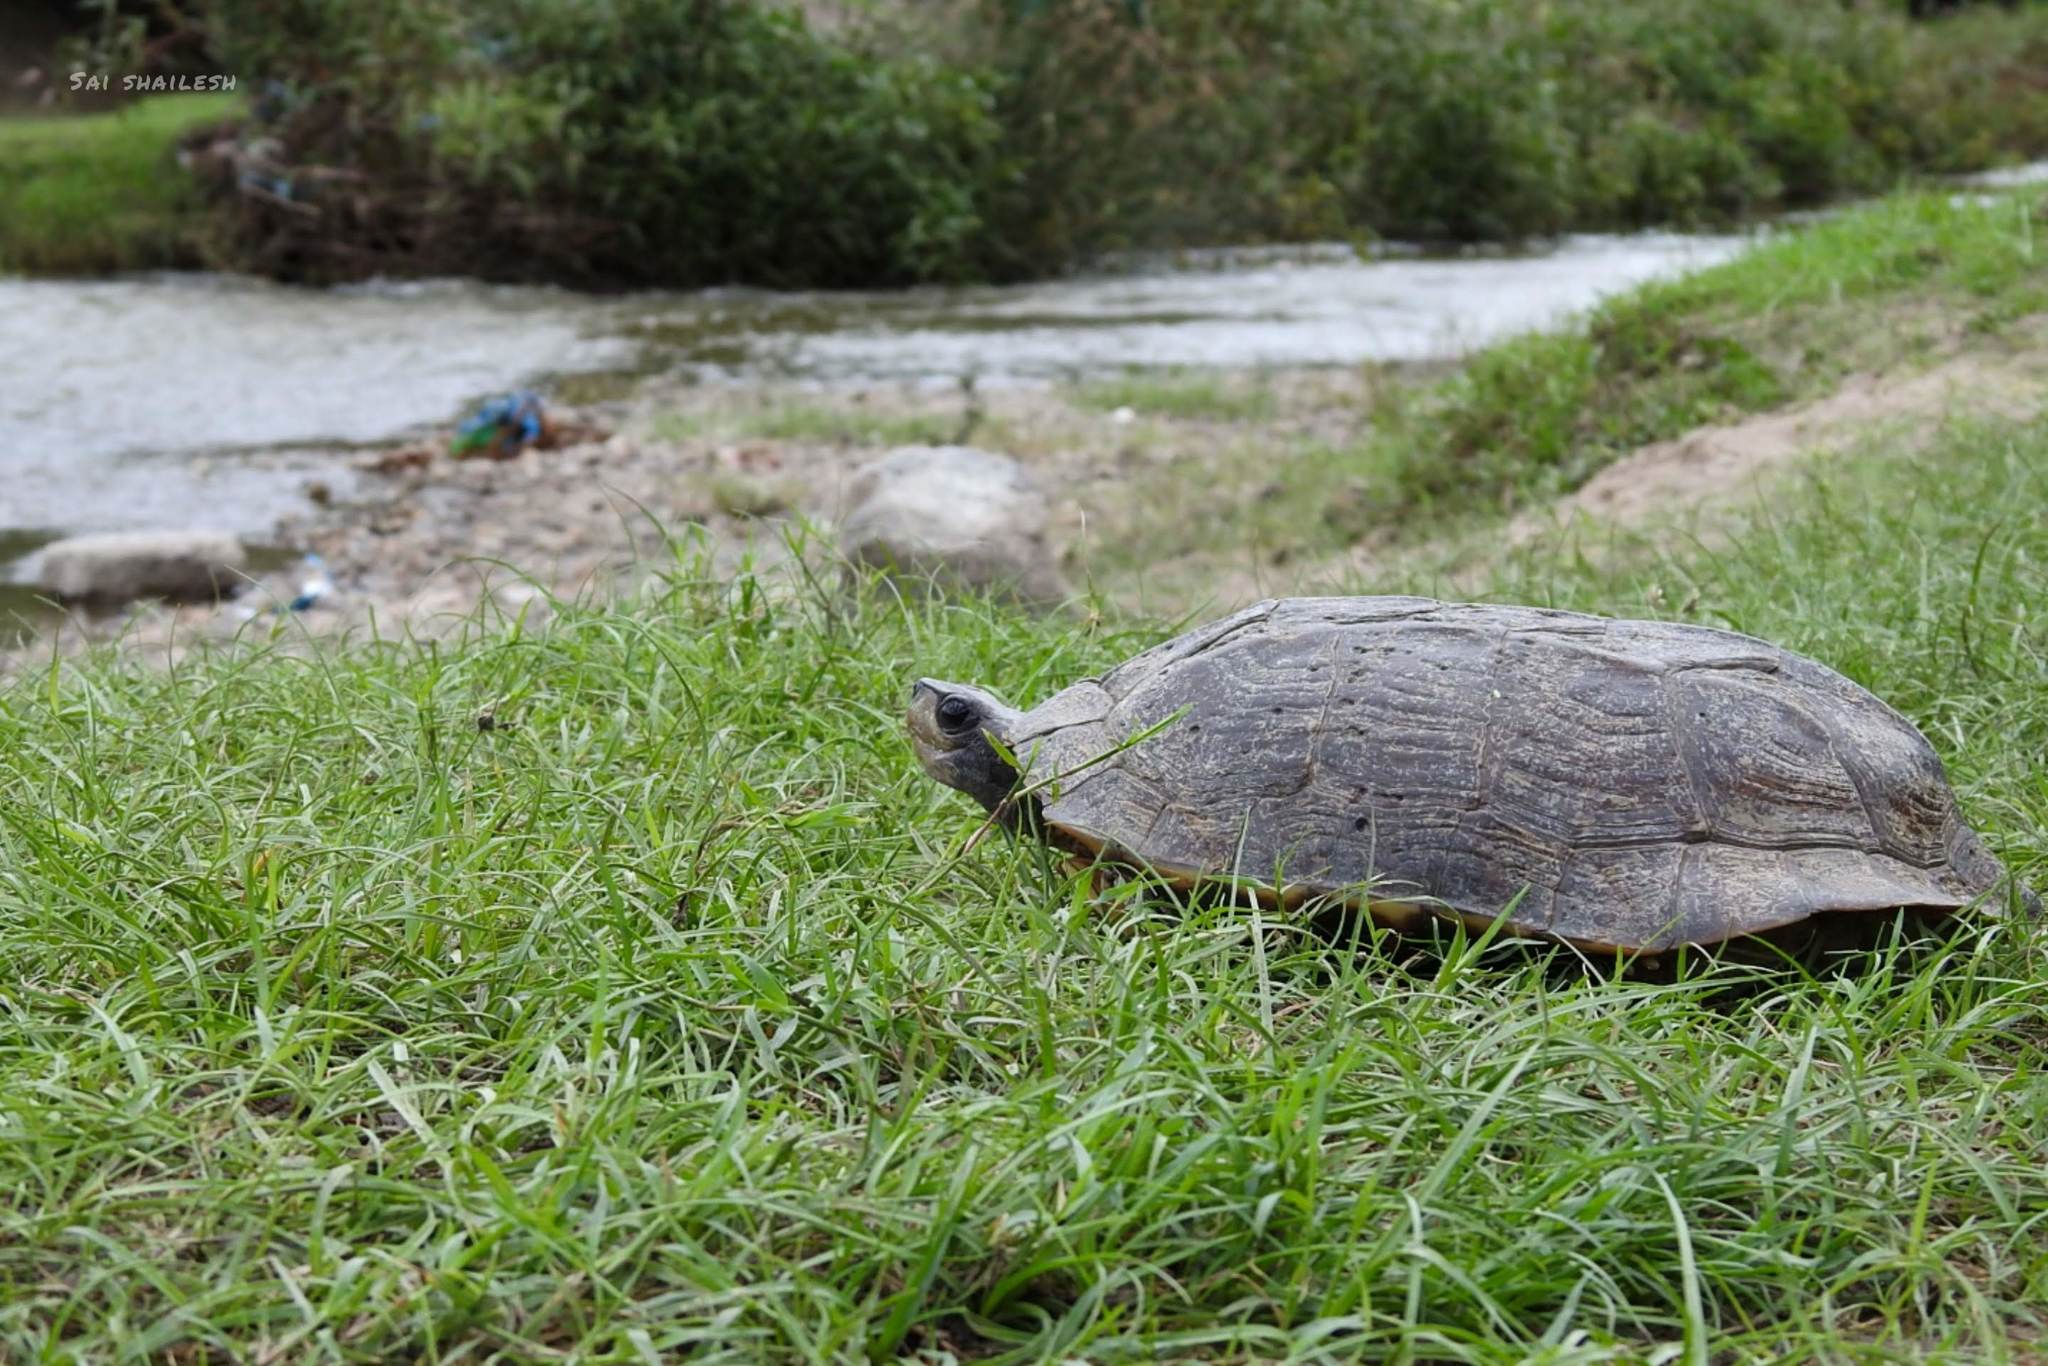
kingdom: Animalia
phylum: Chordata
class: Testudines
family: Geoemydidae
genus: Melanochelys
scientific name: Melanochelys trijuga
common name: Indian black turtle
